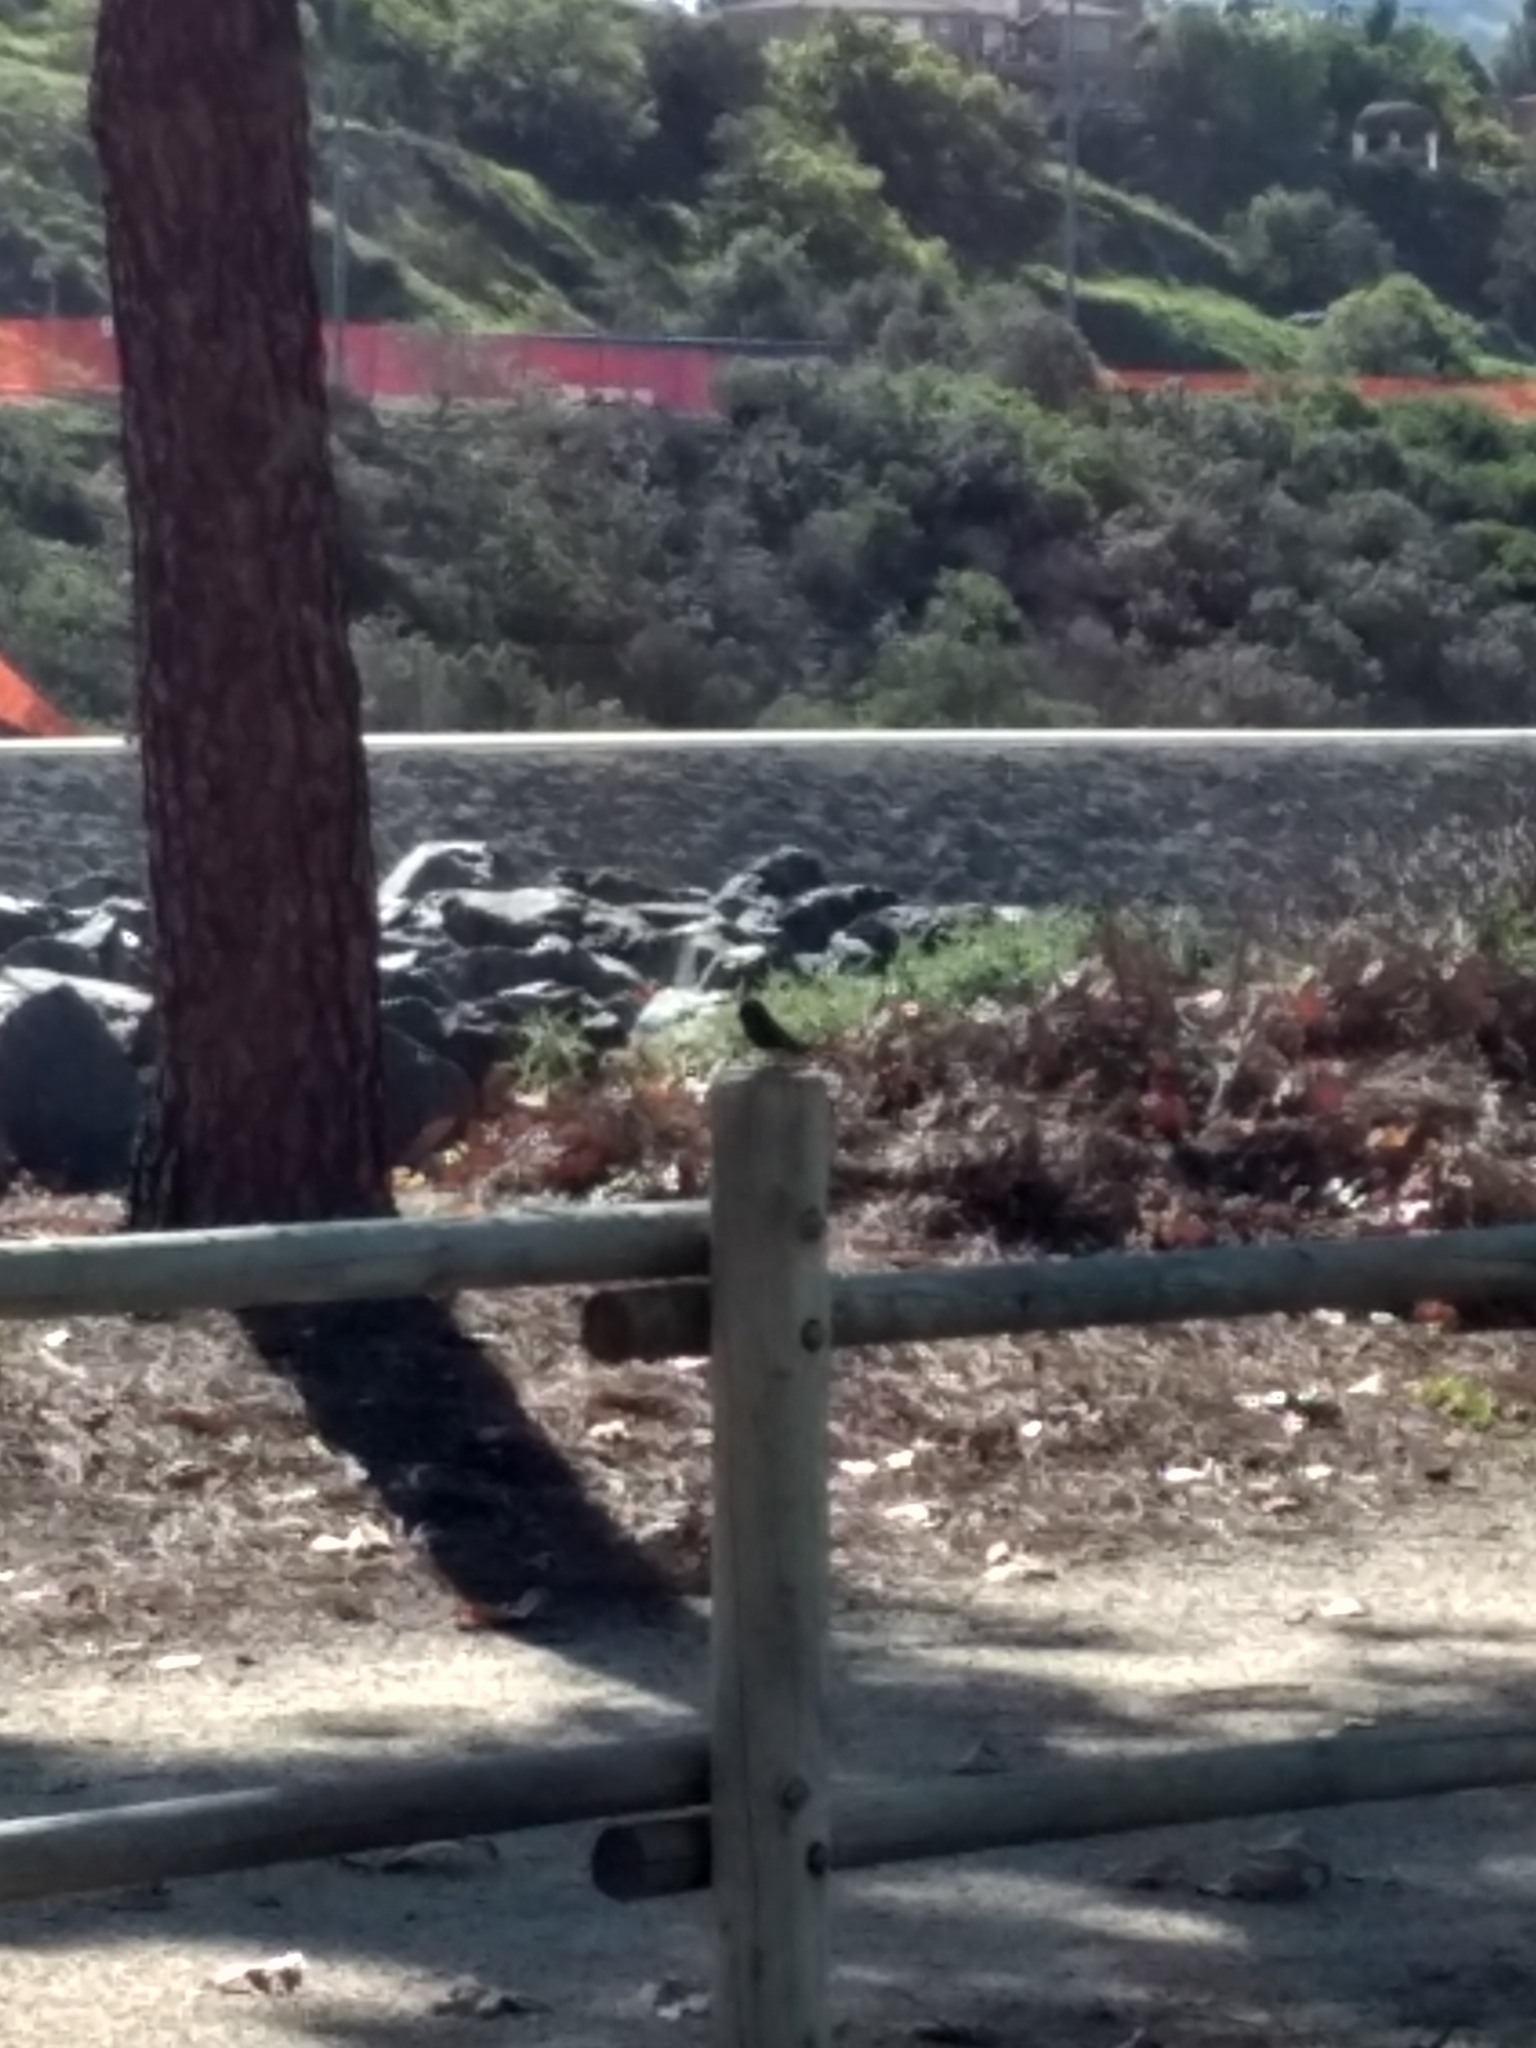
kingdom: Animalia
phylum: Chordata
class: Aves
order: Passeriformes
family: Tyrannidae
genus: Sayornis
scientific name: Sayornis nigricans
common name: Black phoebe
